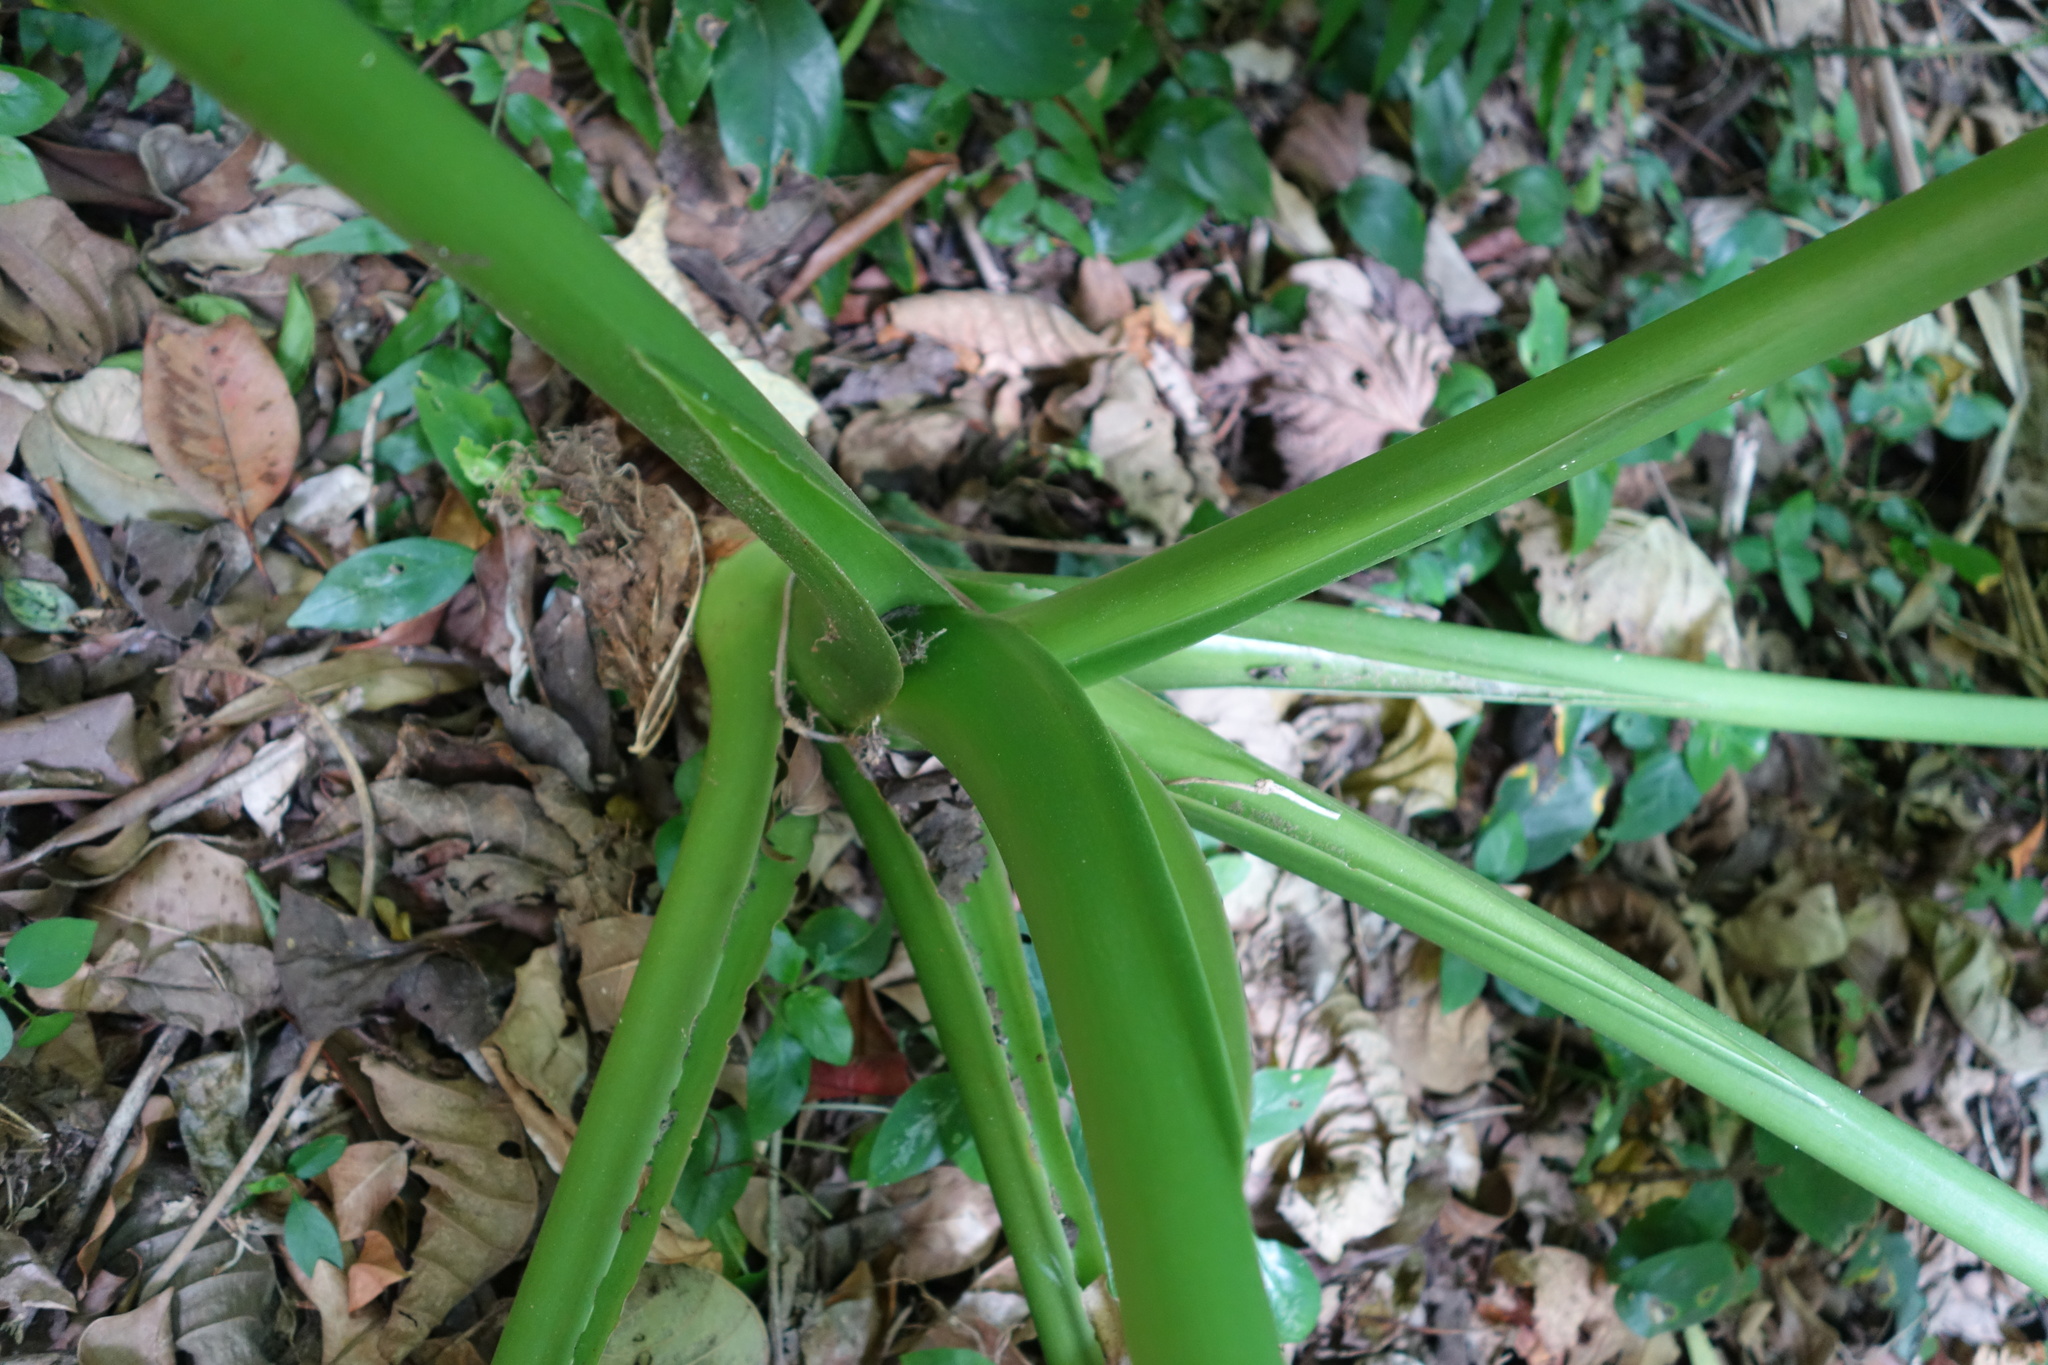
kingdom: Plantae
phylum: Tracheophyta
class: Liliopsida
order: Alismatales
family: Araceae
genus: Alocasia
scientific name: Alocasia odora
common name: Asian taro
